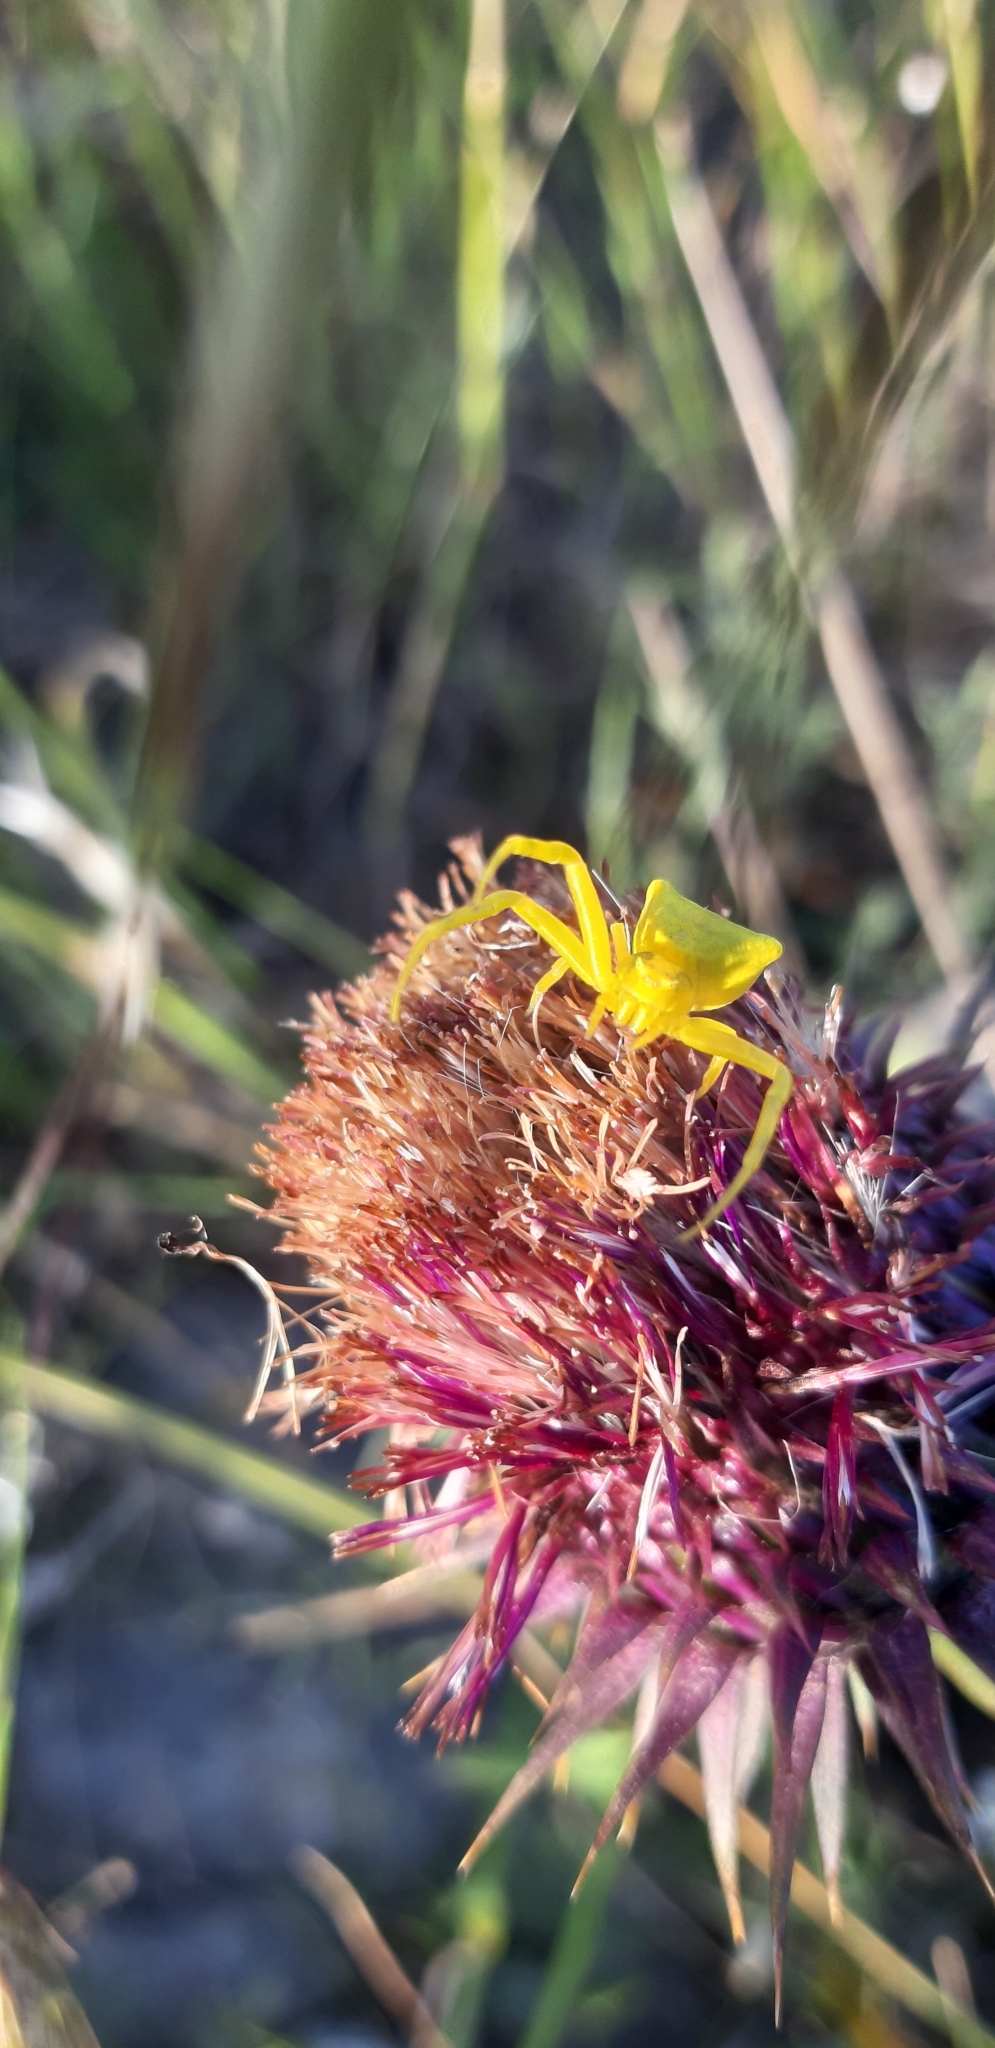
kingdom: Animalia
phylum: Arthropoda
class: Arachnida
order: Araneae
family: Thomisidae
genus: Thomisus
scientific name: Thomisus onustus
